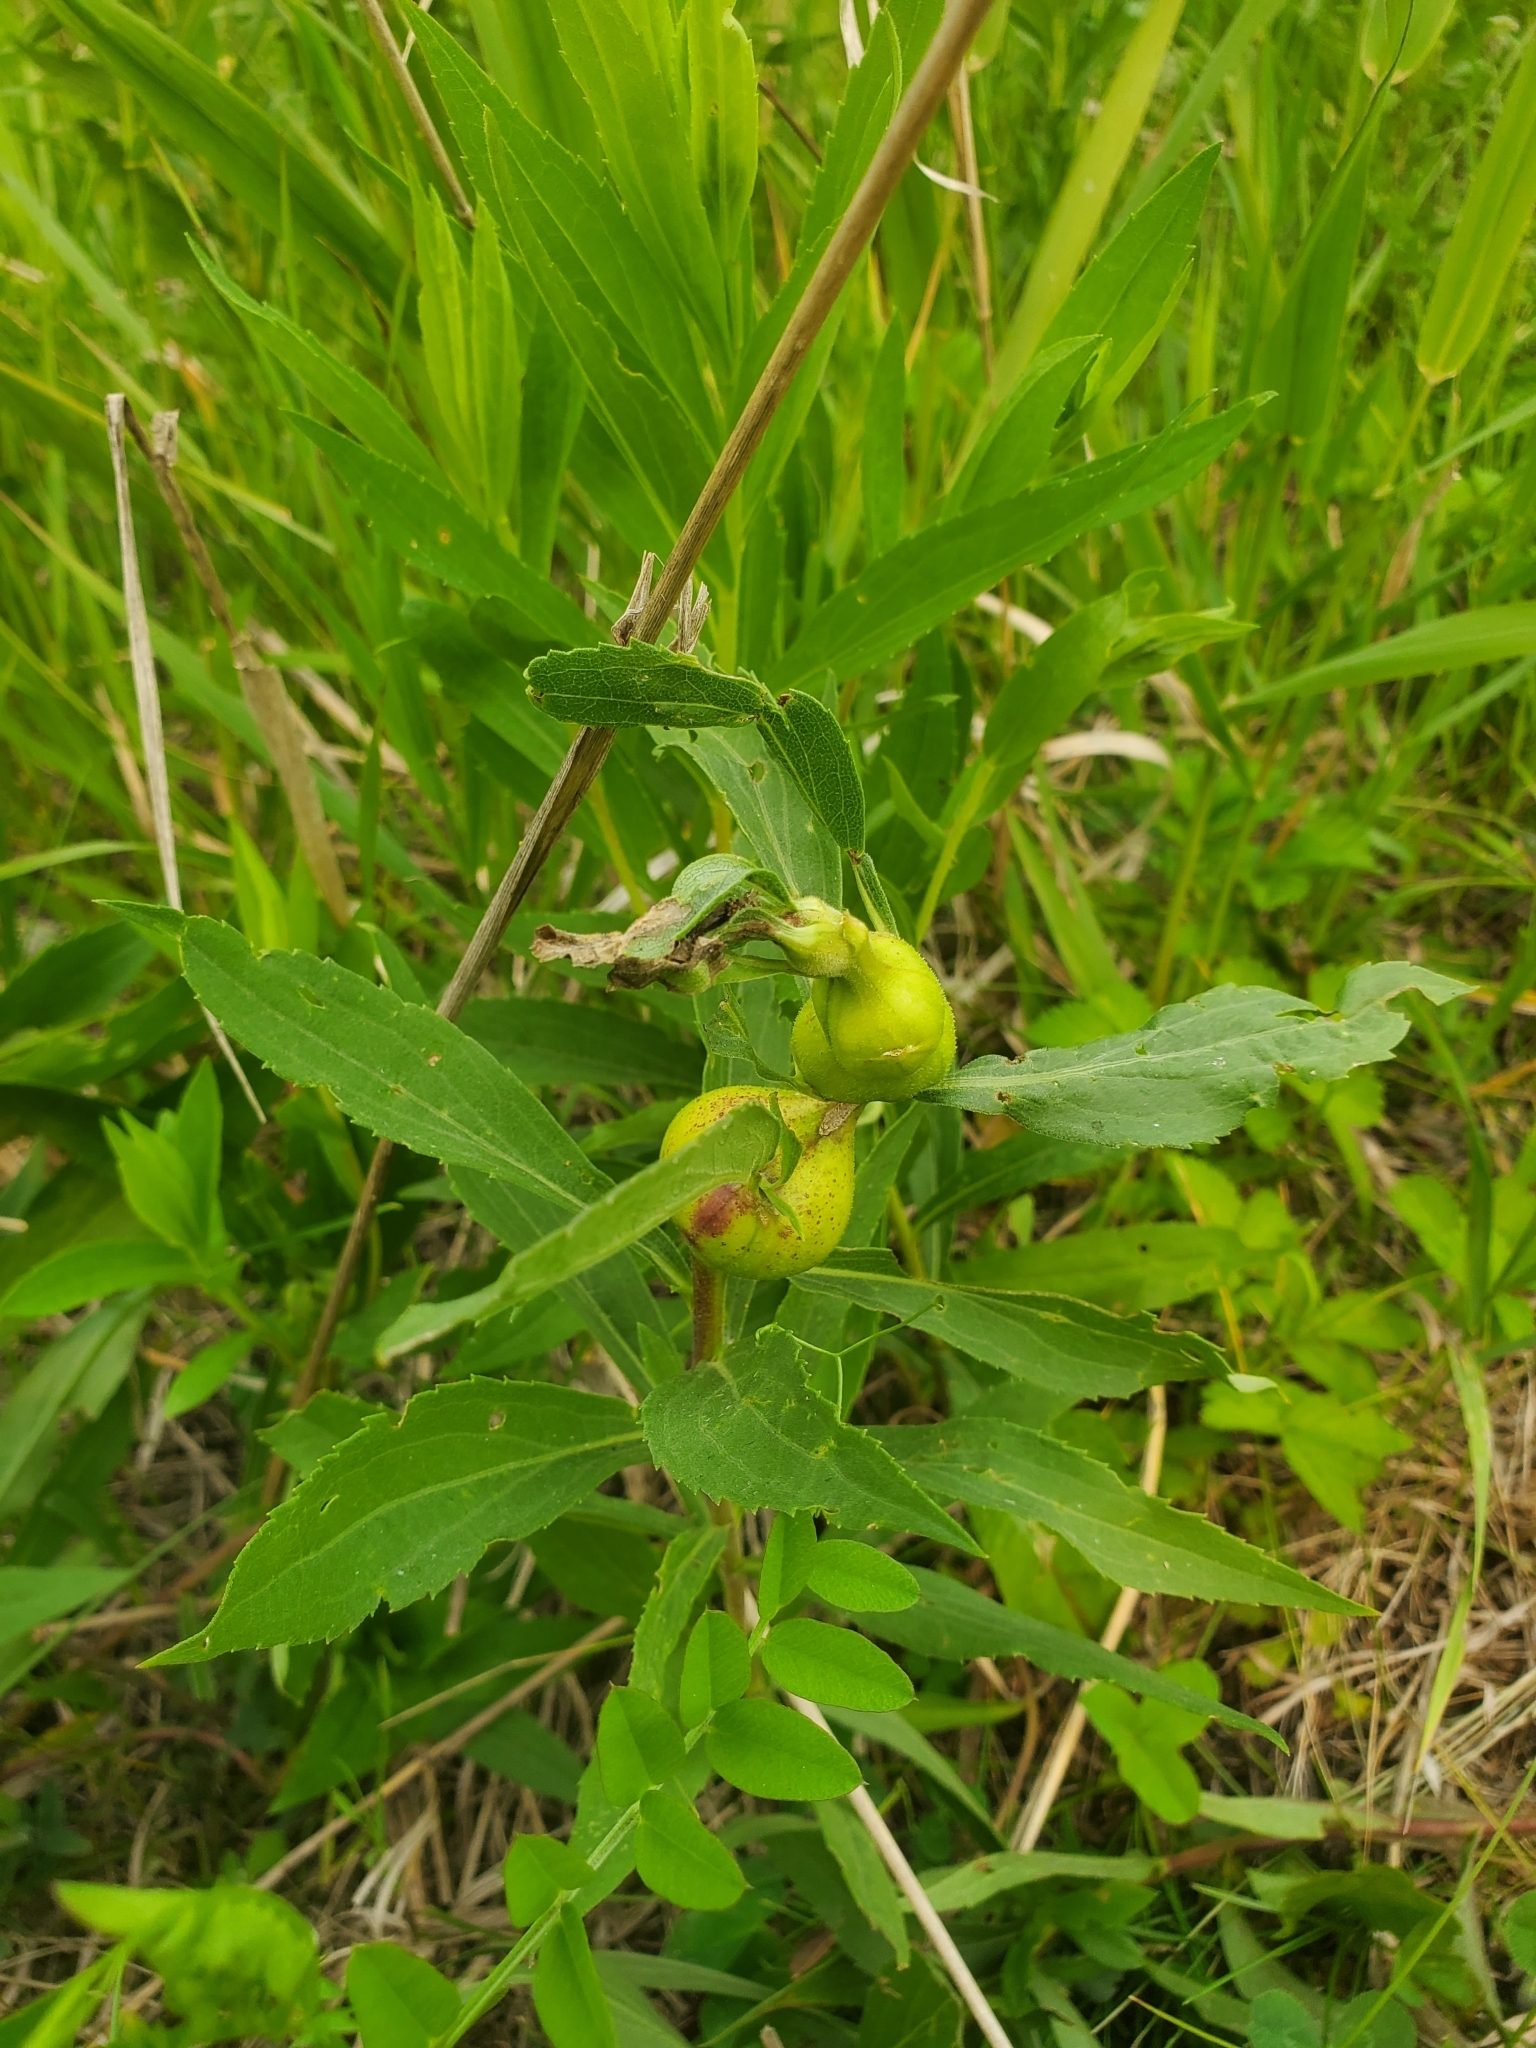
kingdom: Animalia
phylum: Arthropoda
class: Insecta
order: Diptera
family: Tephritidae
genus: Eurosta
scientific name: Eurosta solidaginis
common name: Goldenrod gall fly
